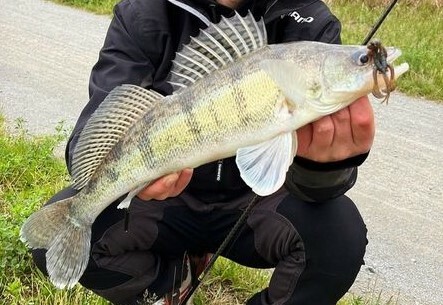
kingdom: Animalia
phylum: Chordata
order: Perciformes
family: Percidae
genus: Sander
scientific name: Sander volgensis
